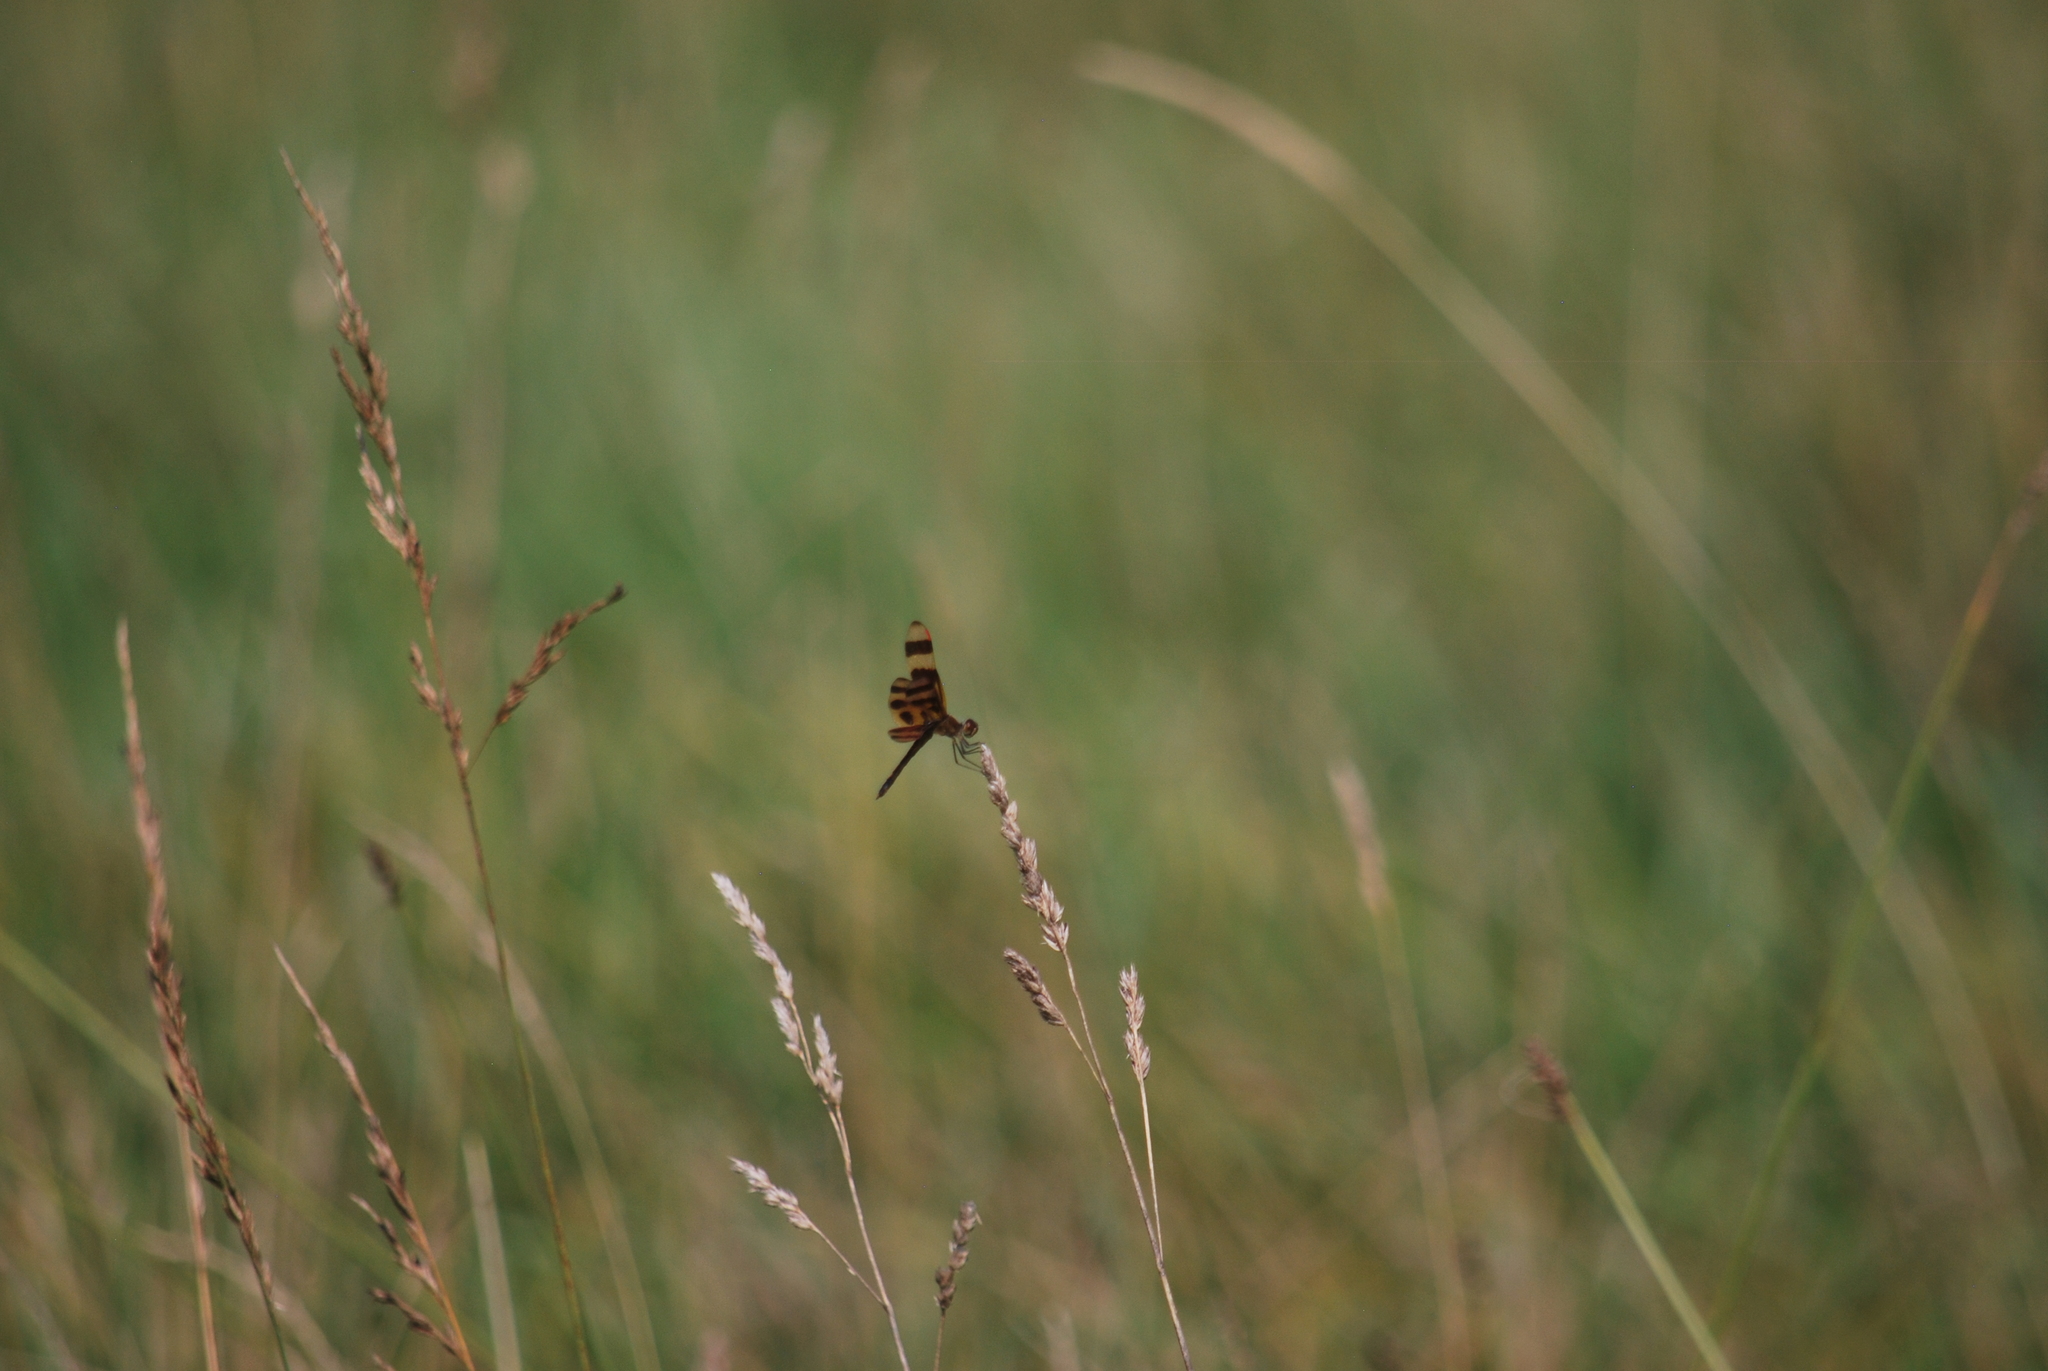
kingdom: Animalia
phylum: Arthropoda
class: Insecta
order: Odonata
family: Libellulidae
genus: Celithemis
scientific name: Celithemis eponina
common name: Halloween pennant
